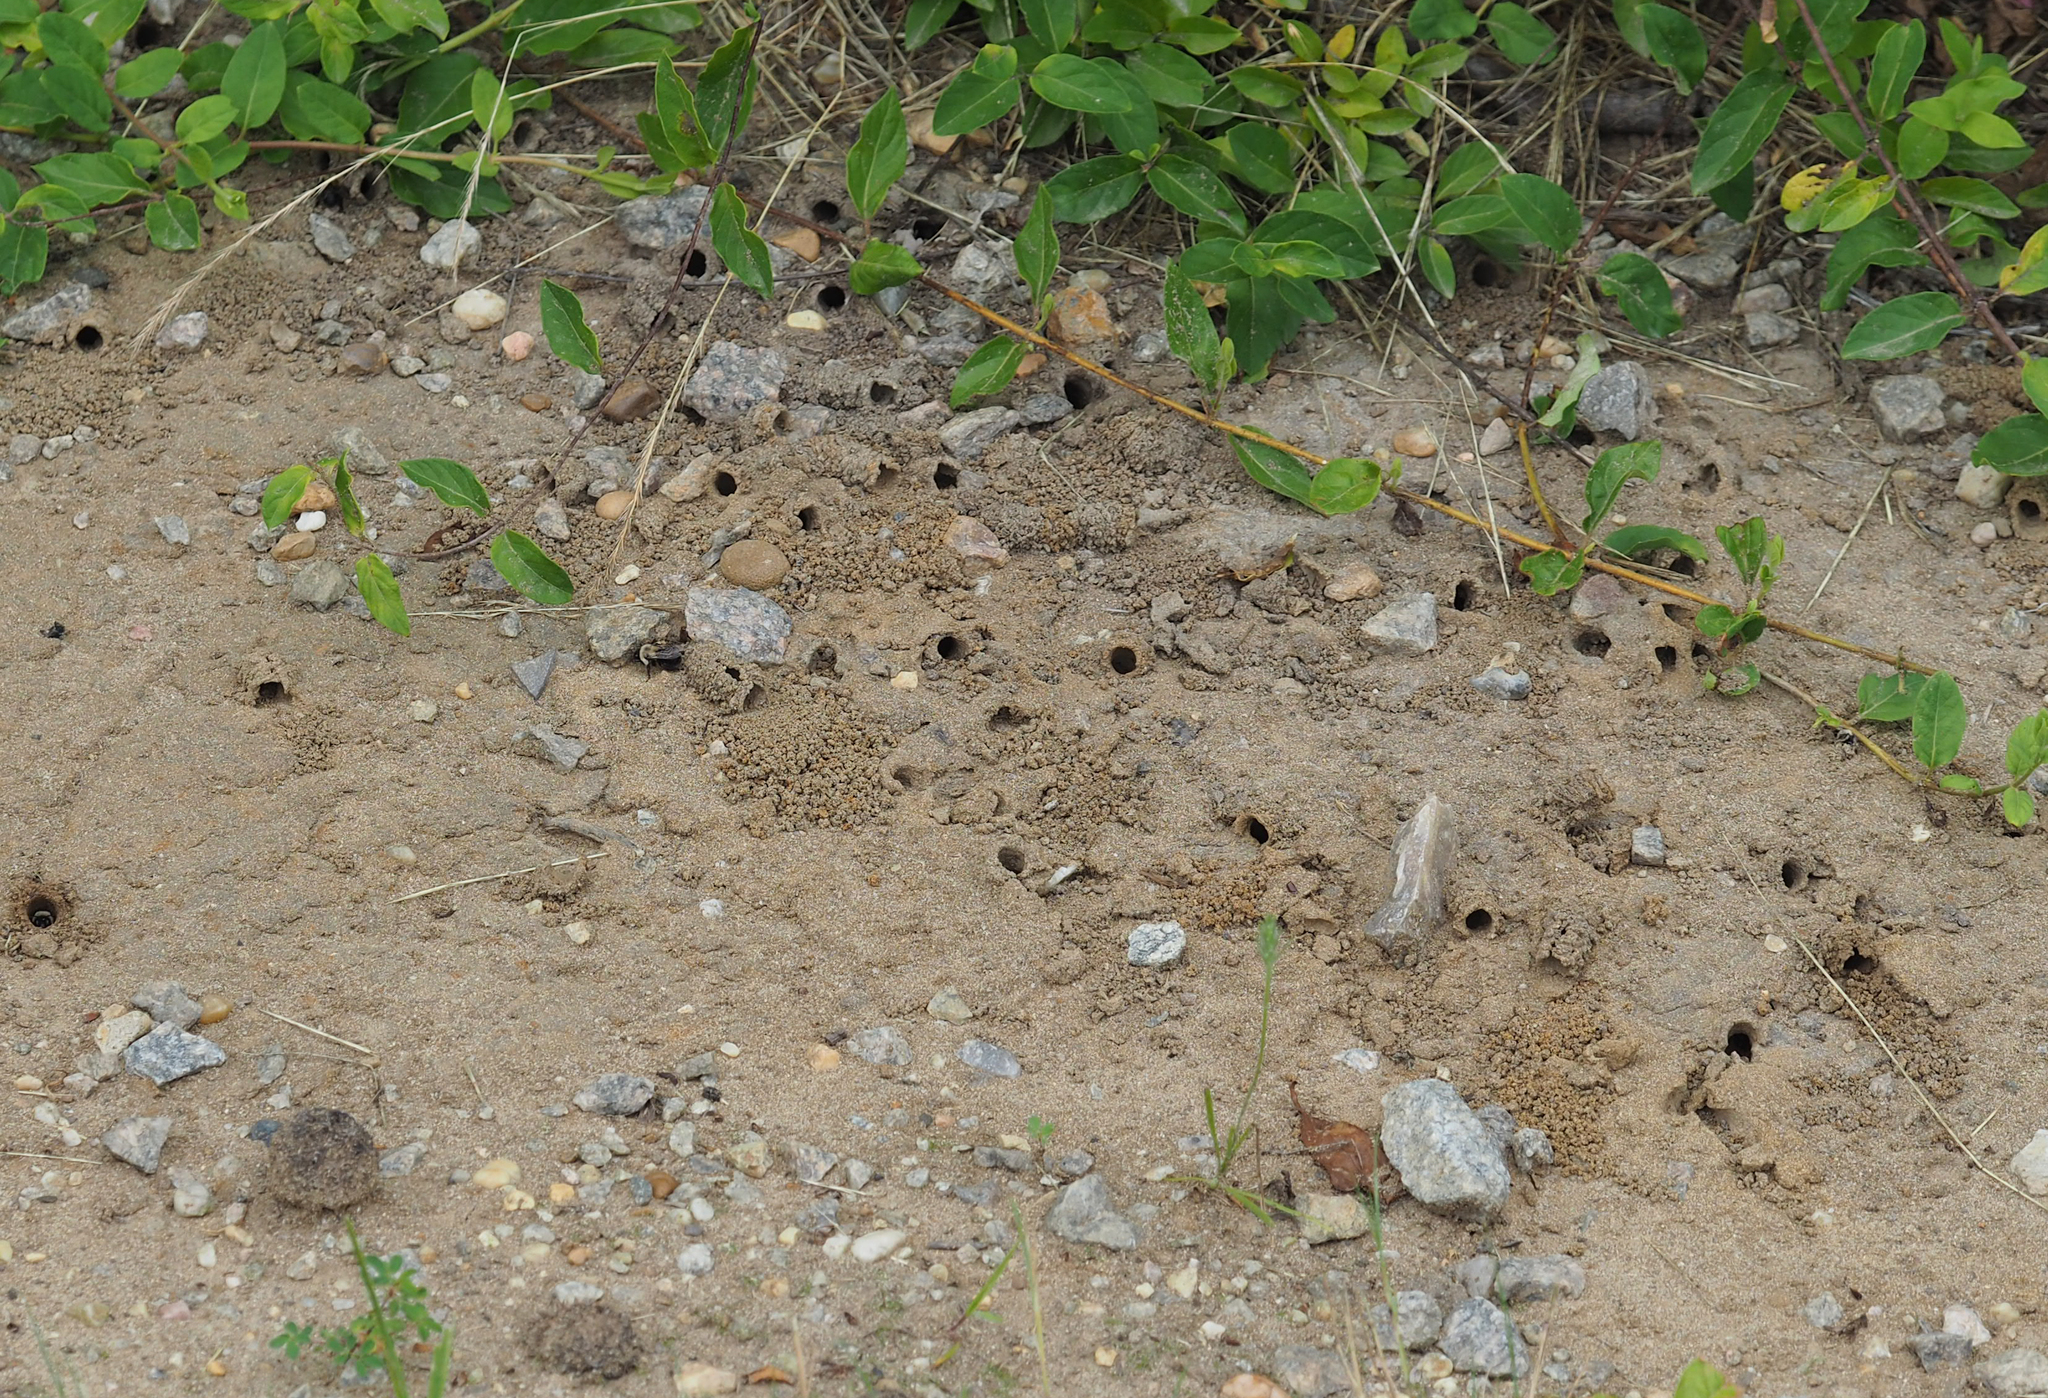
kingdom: Animalia
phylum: Arthropoda
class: Insecta
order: Hymenoptera
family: Apidae
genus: Anthophora
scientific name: Anthophora abrupta
